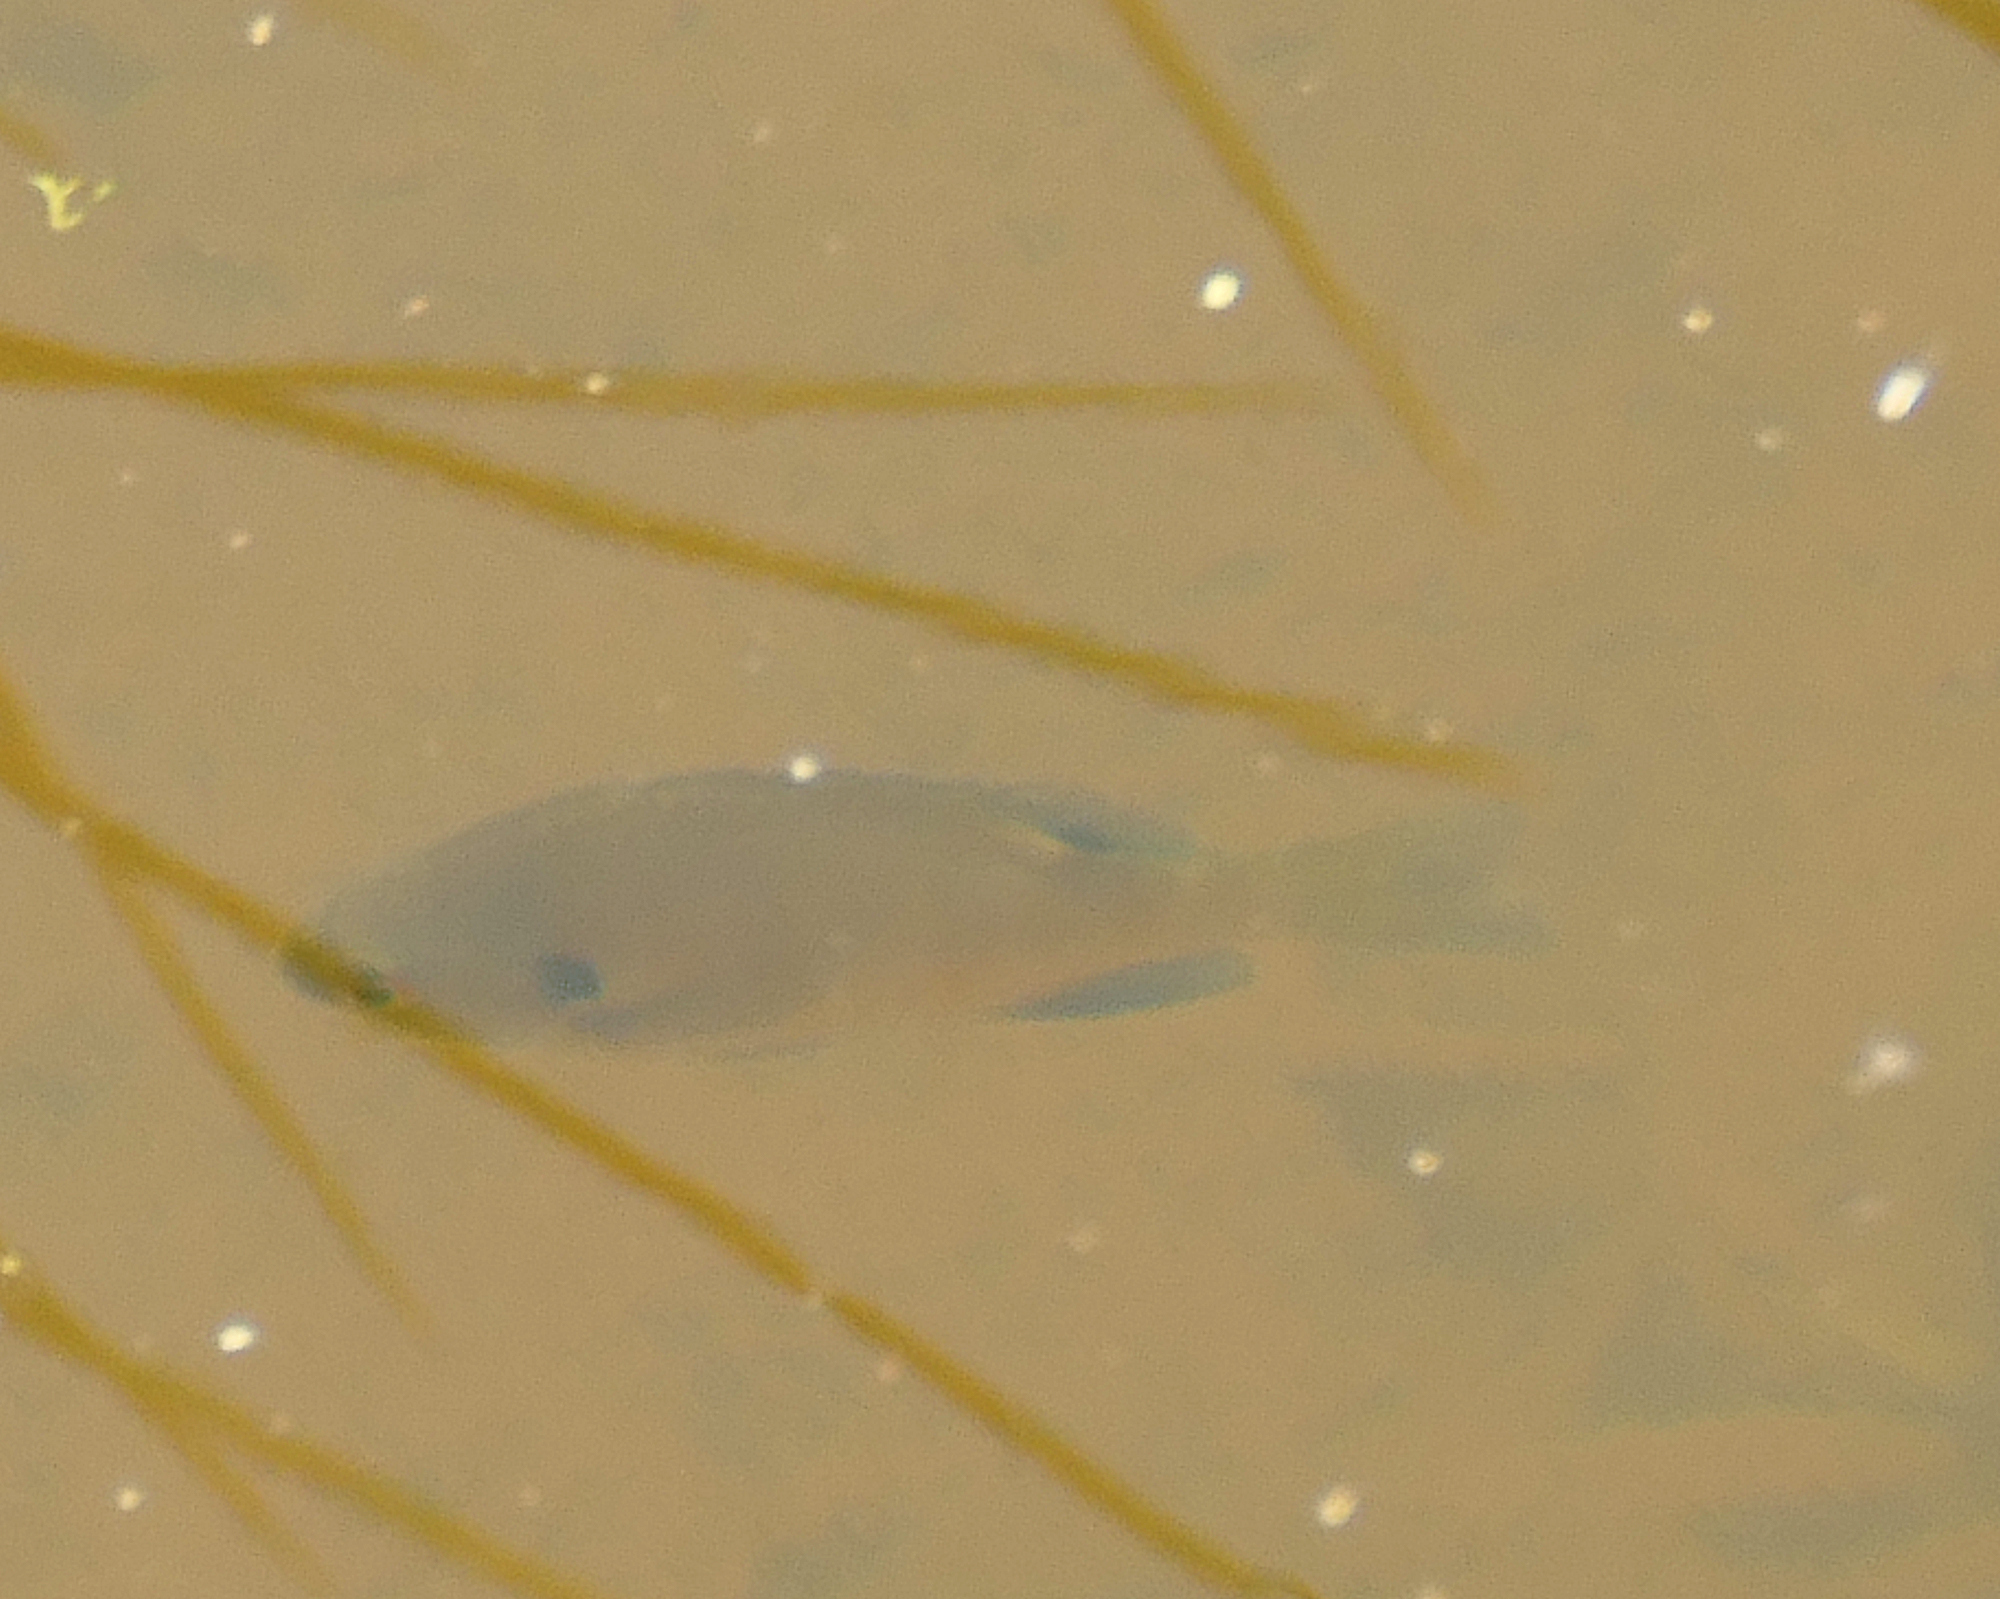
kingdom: Animalia
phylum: Chordata
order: Perciformes
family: Centrarchidae
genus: Lepomis
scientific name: Lepomis macrochirus
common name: Bluegill
